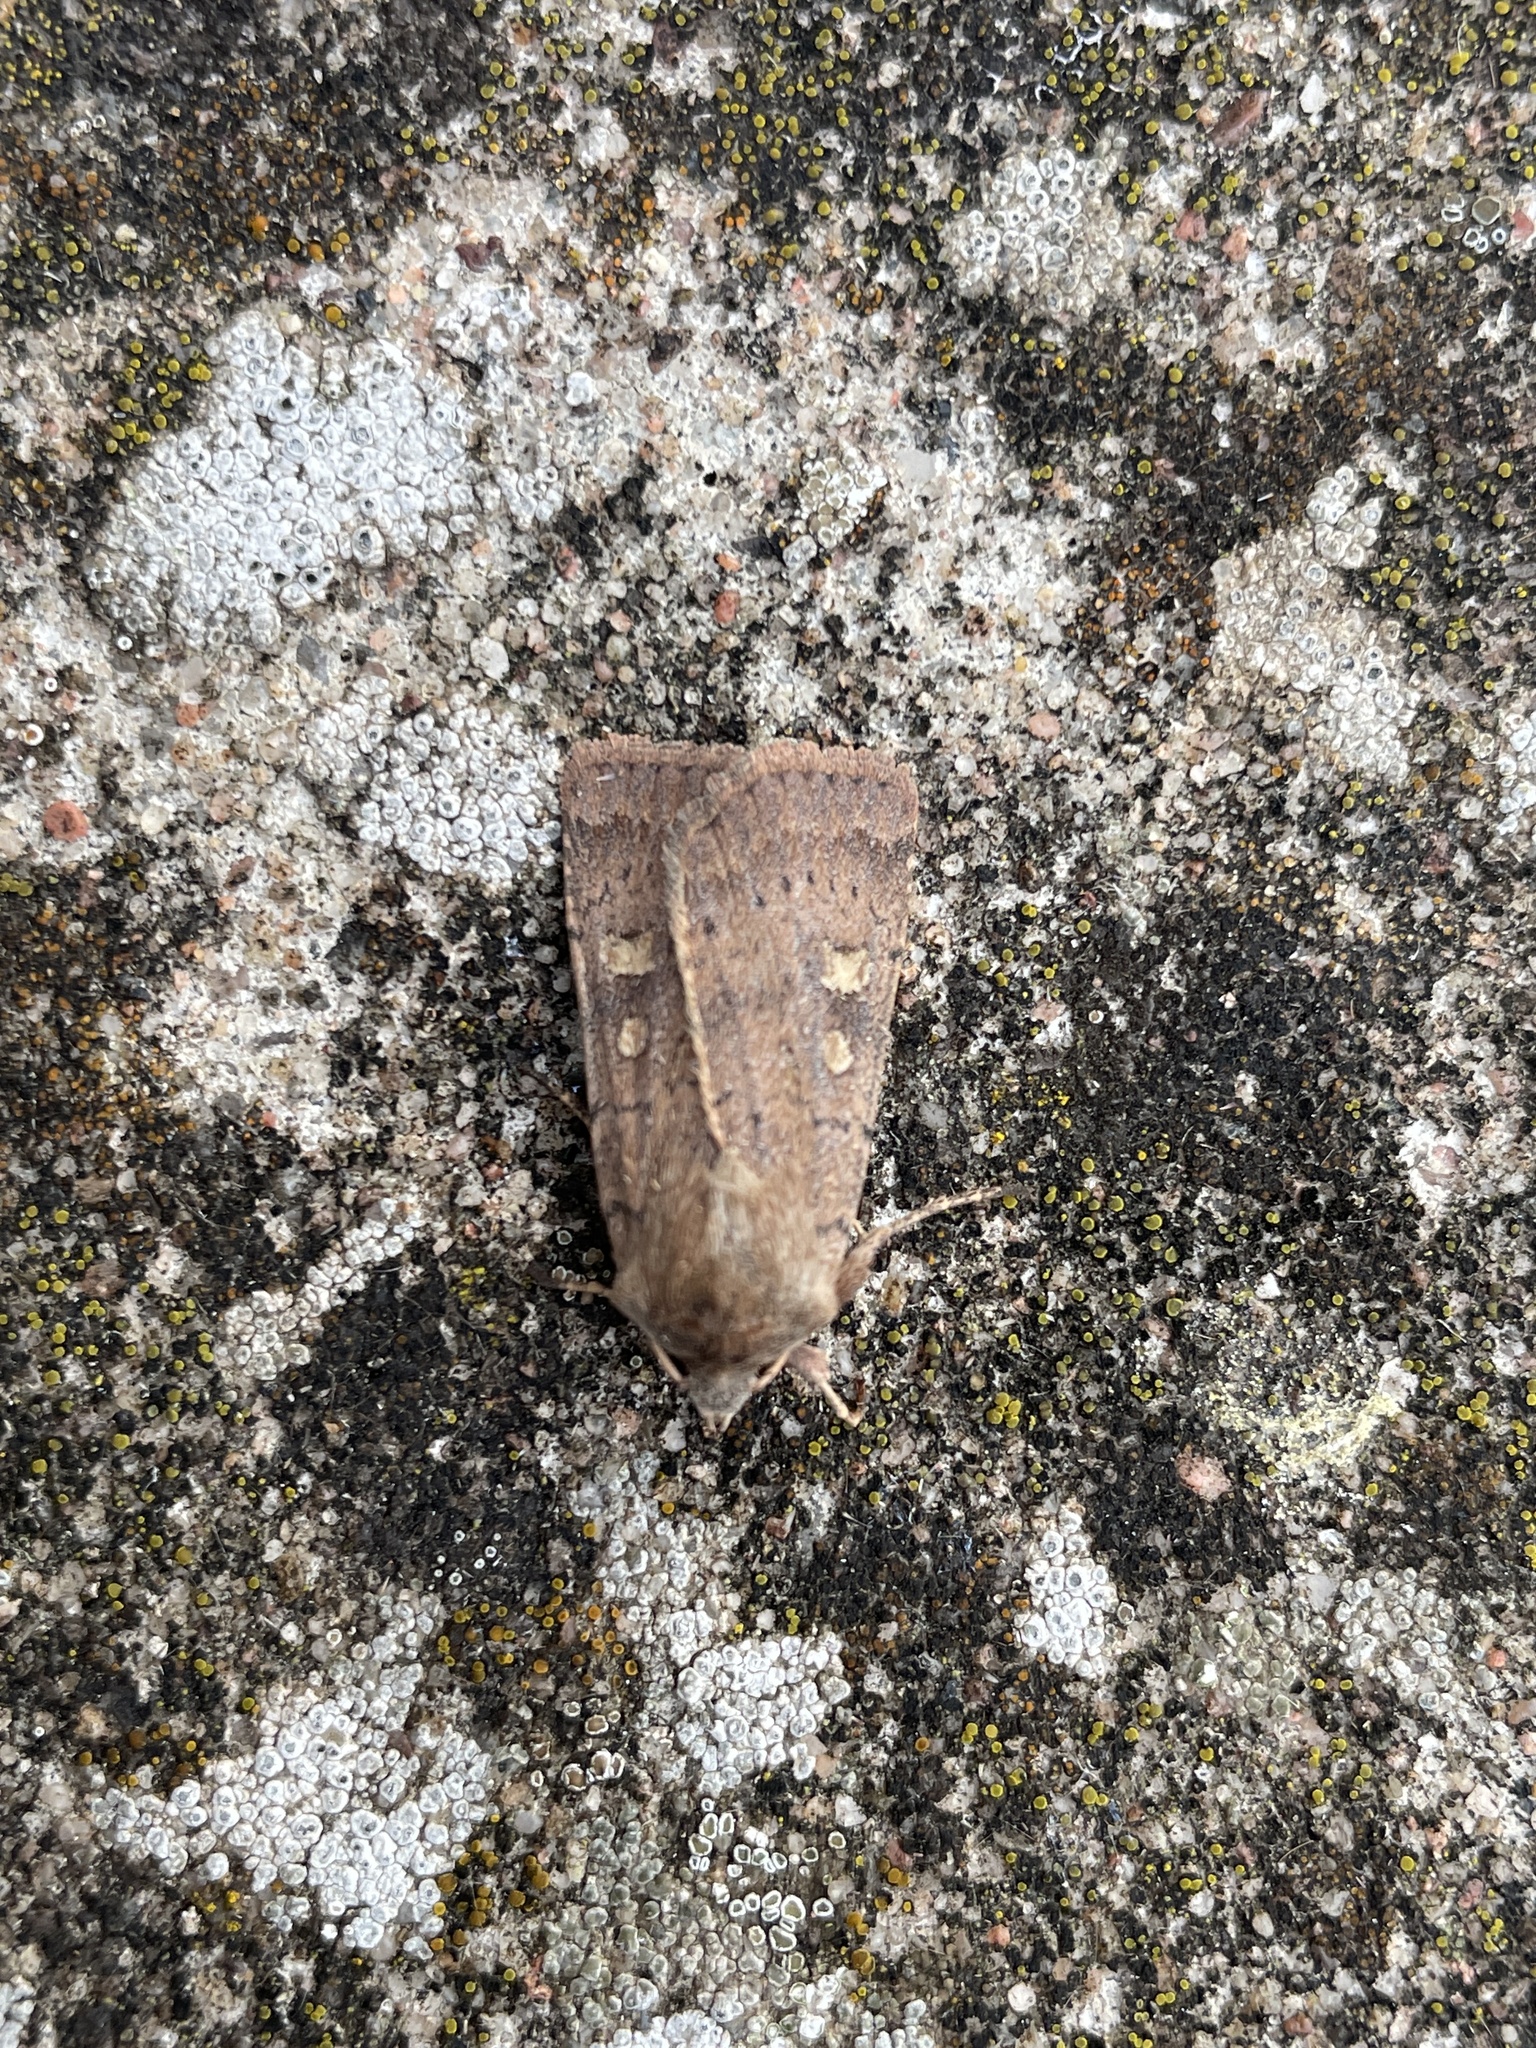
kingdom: Animalia
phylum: Arthropoda
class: Insecta
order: Lepidoptera
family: Noctuidae
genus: Xestia
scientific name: Xestia xanthographa
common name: Square-spot rustic
